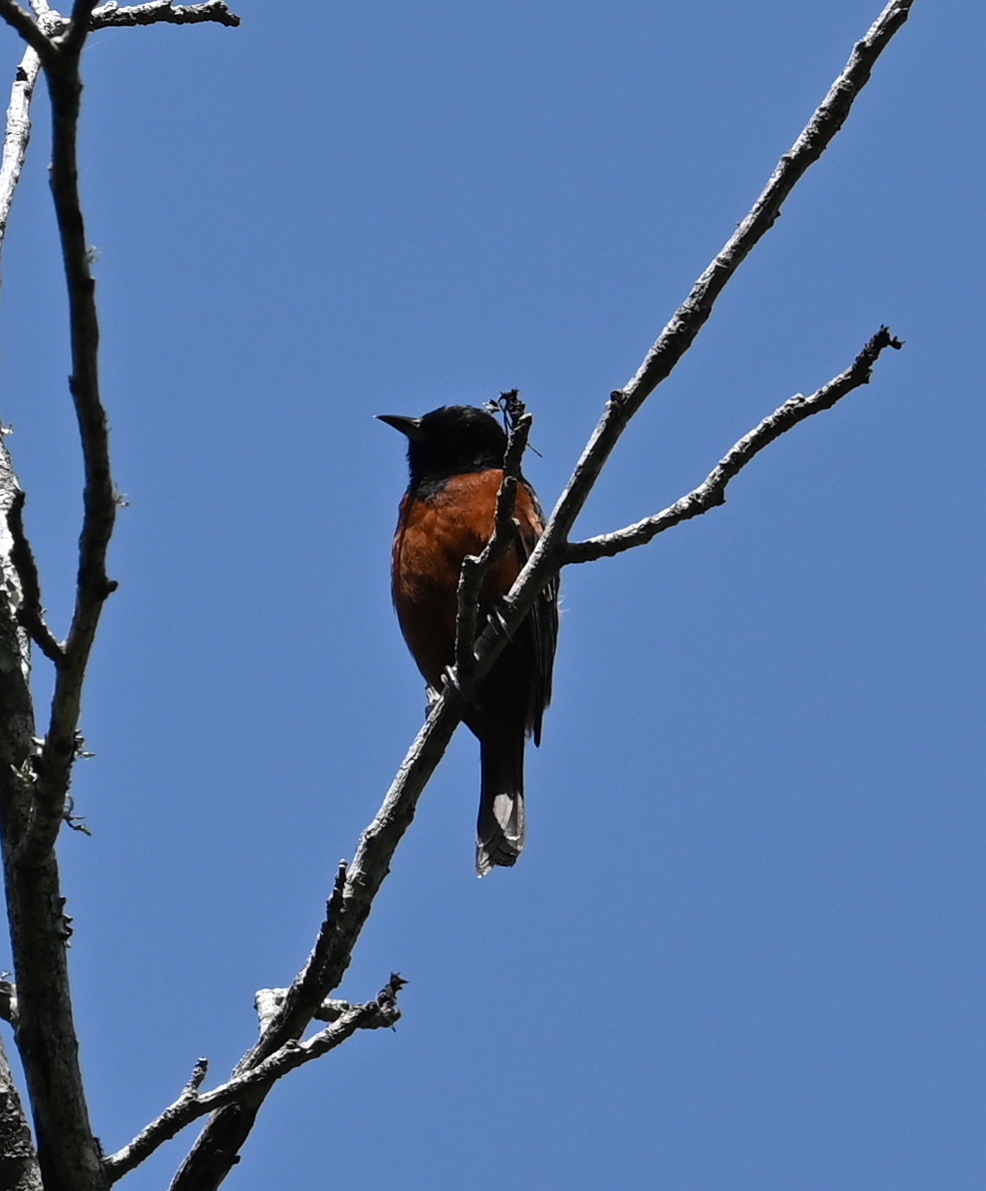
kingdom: Animalia
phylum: Chordata
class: Aves
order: Passeriformes
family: Icteridae
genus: Icterus
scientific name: Icterus spurius
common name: Orchard oriole
